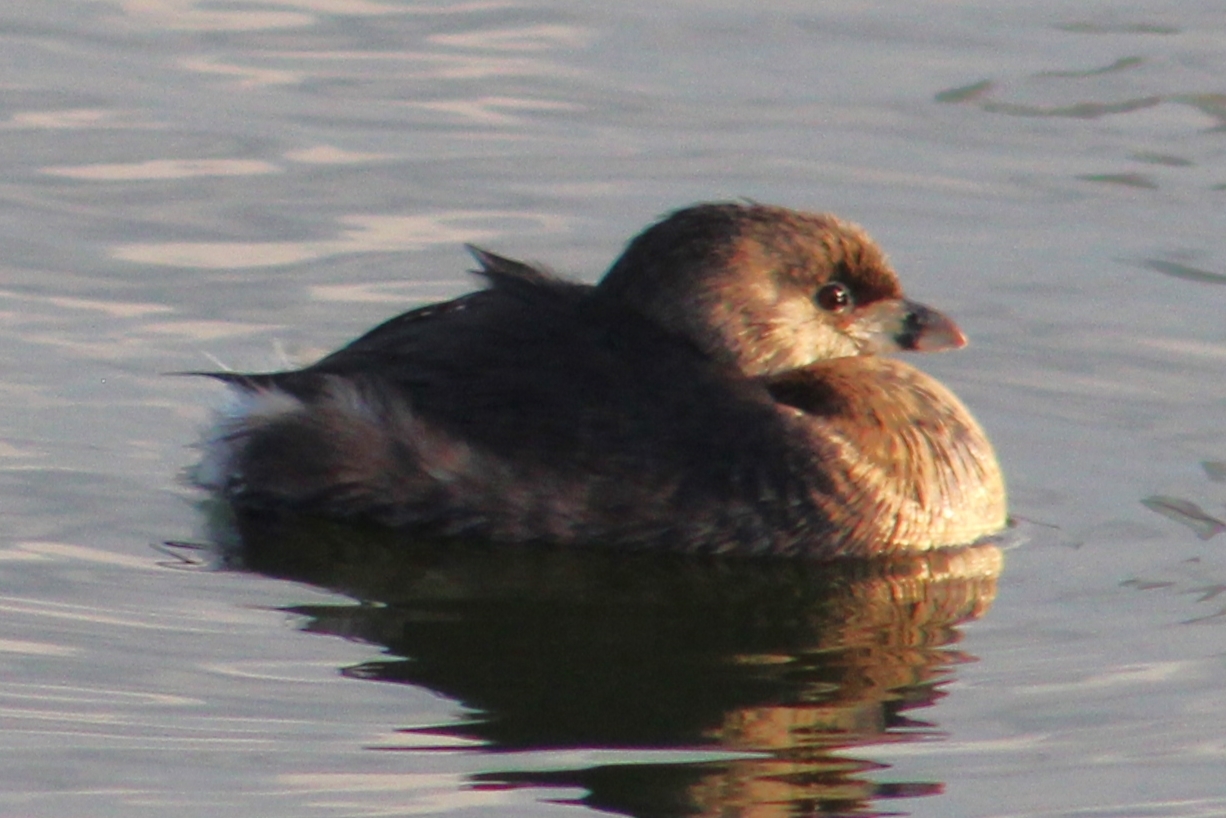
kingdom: Animalia
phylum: Chordata
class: Aves
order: Podicipediformes
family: Podicipedidae
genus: Podilymbus
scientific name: Podilymbus podiceps
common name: Pied-billed grebe
